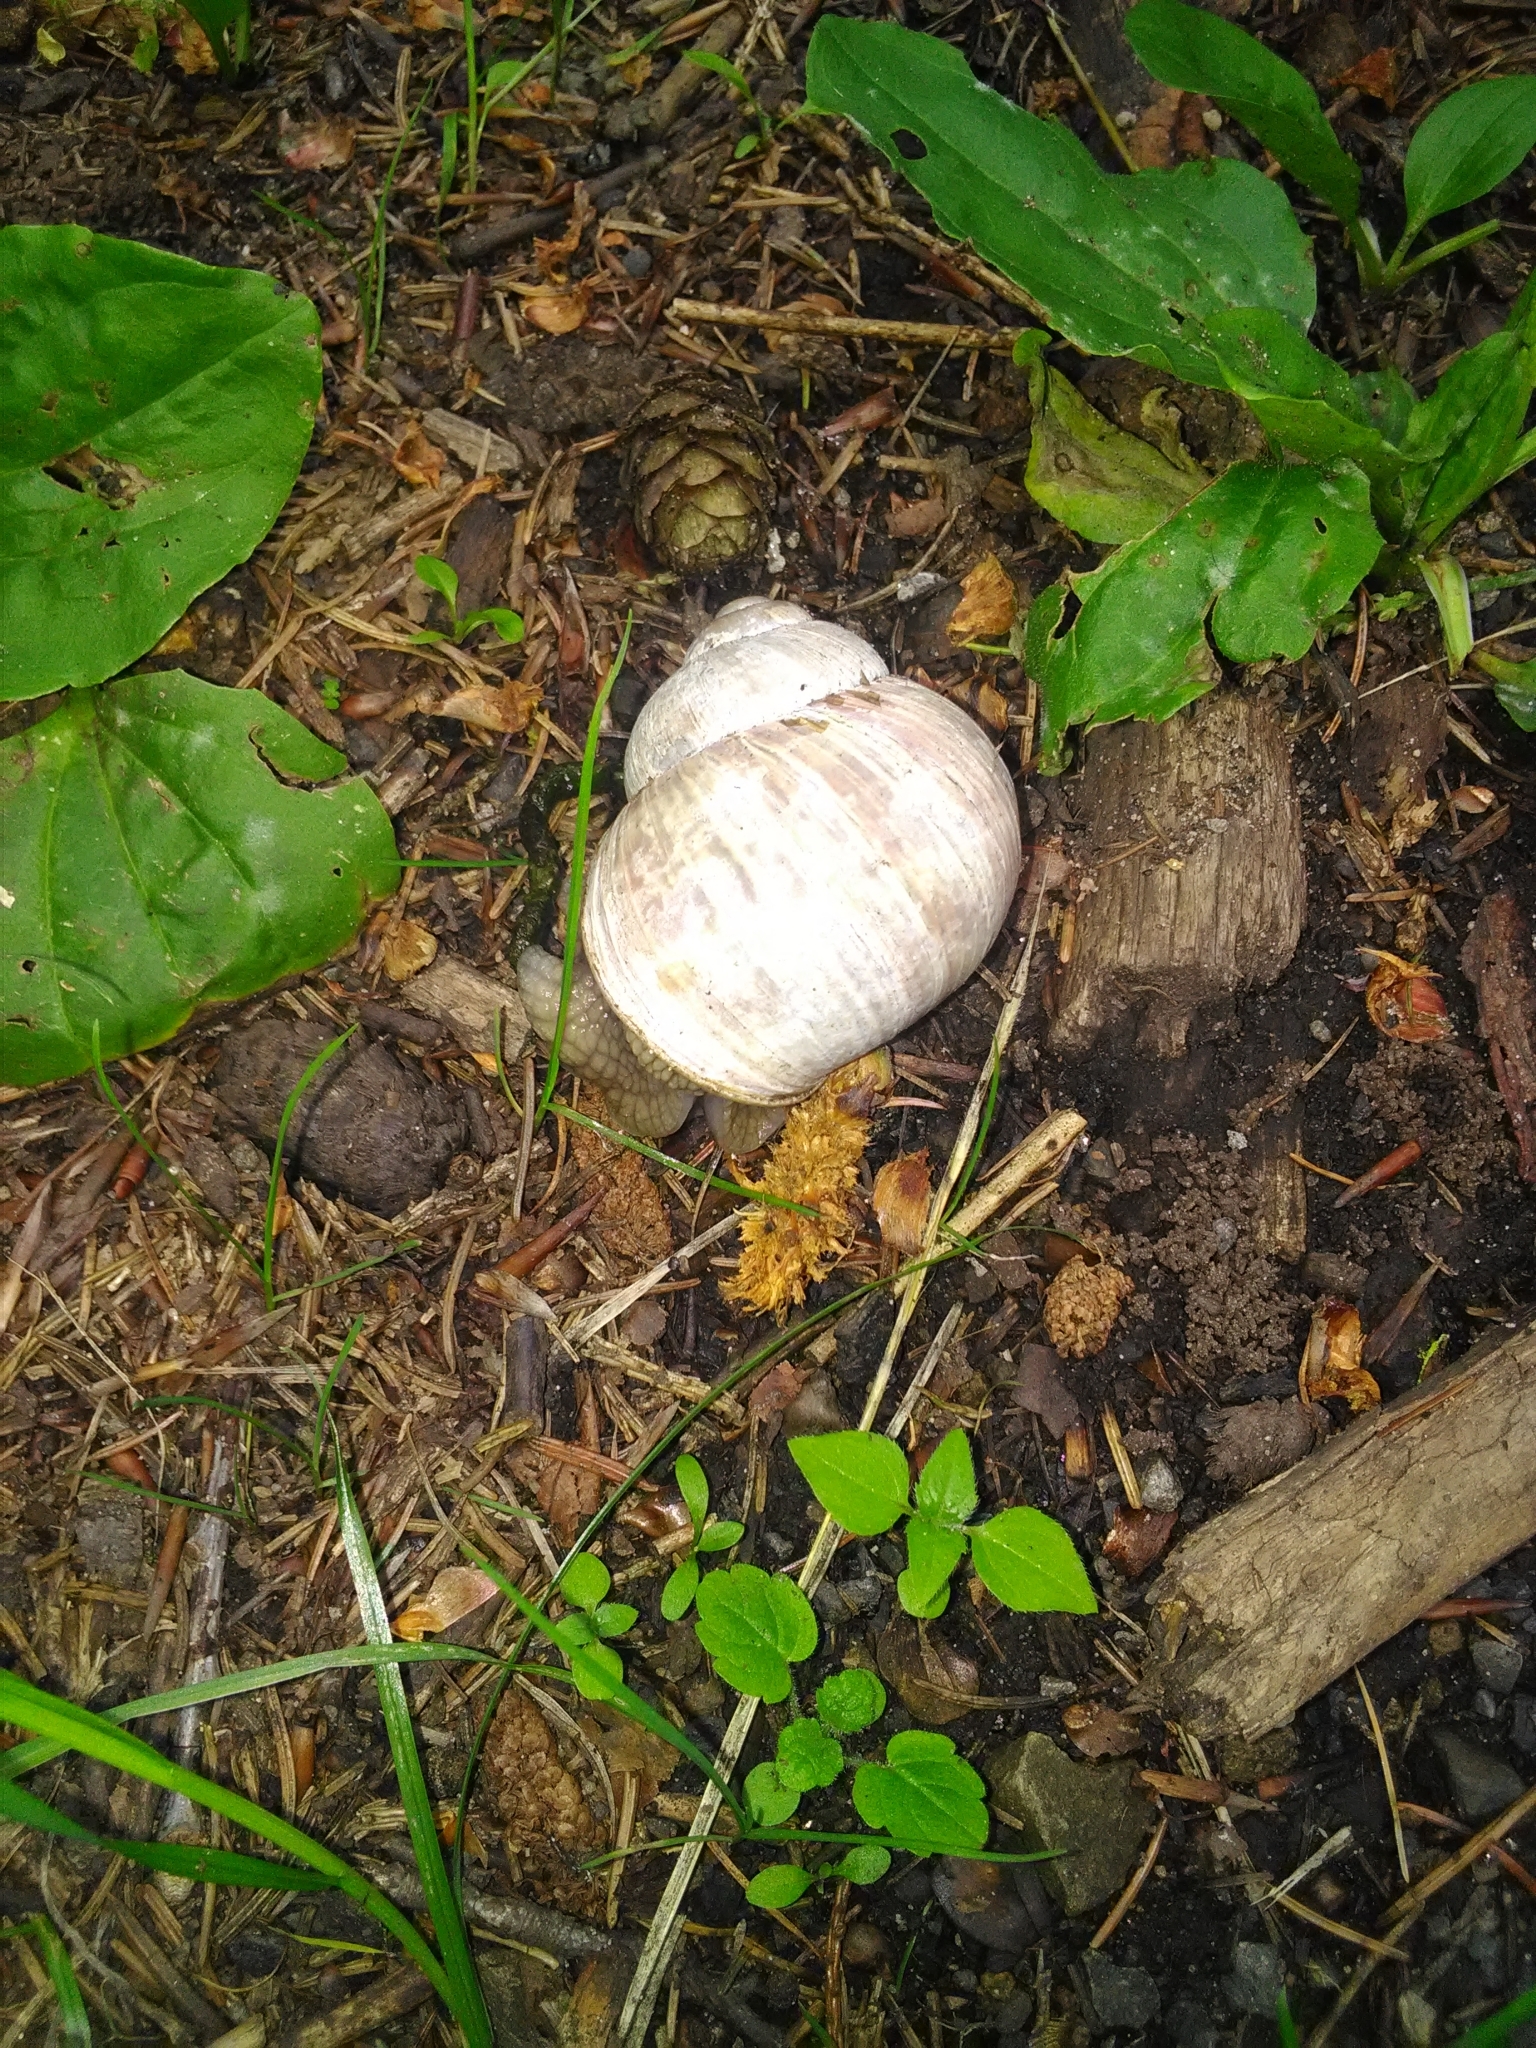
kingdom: Animalia
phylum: Mollusca
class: Gastropoda
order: Stylommatophora
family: Helicidae
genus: Helix
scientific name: Helix pomatia
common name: Roman snail
